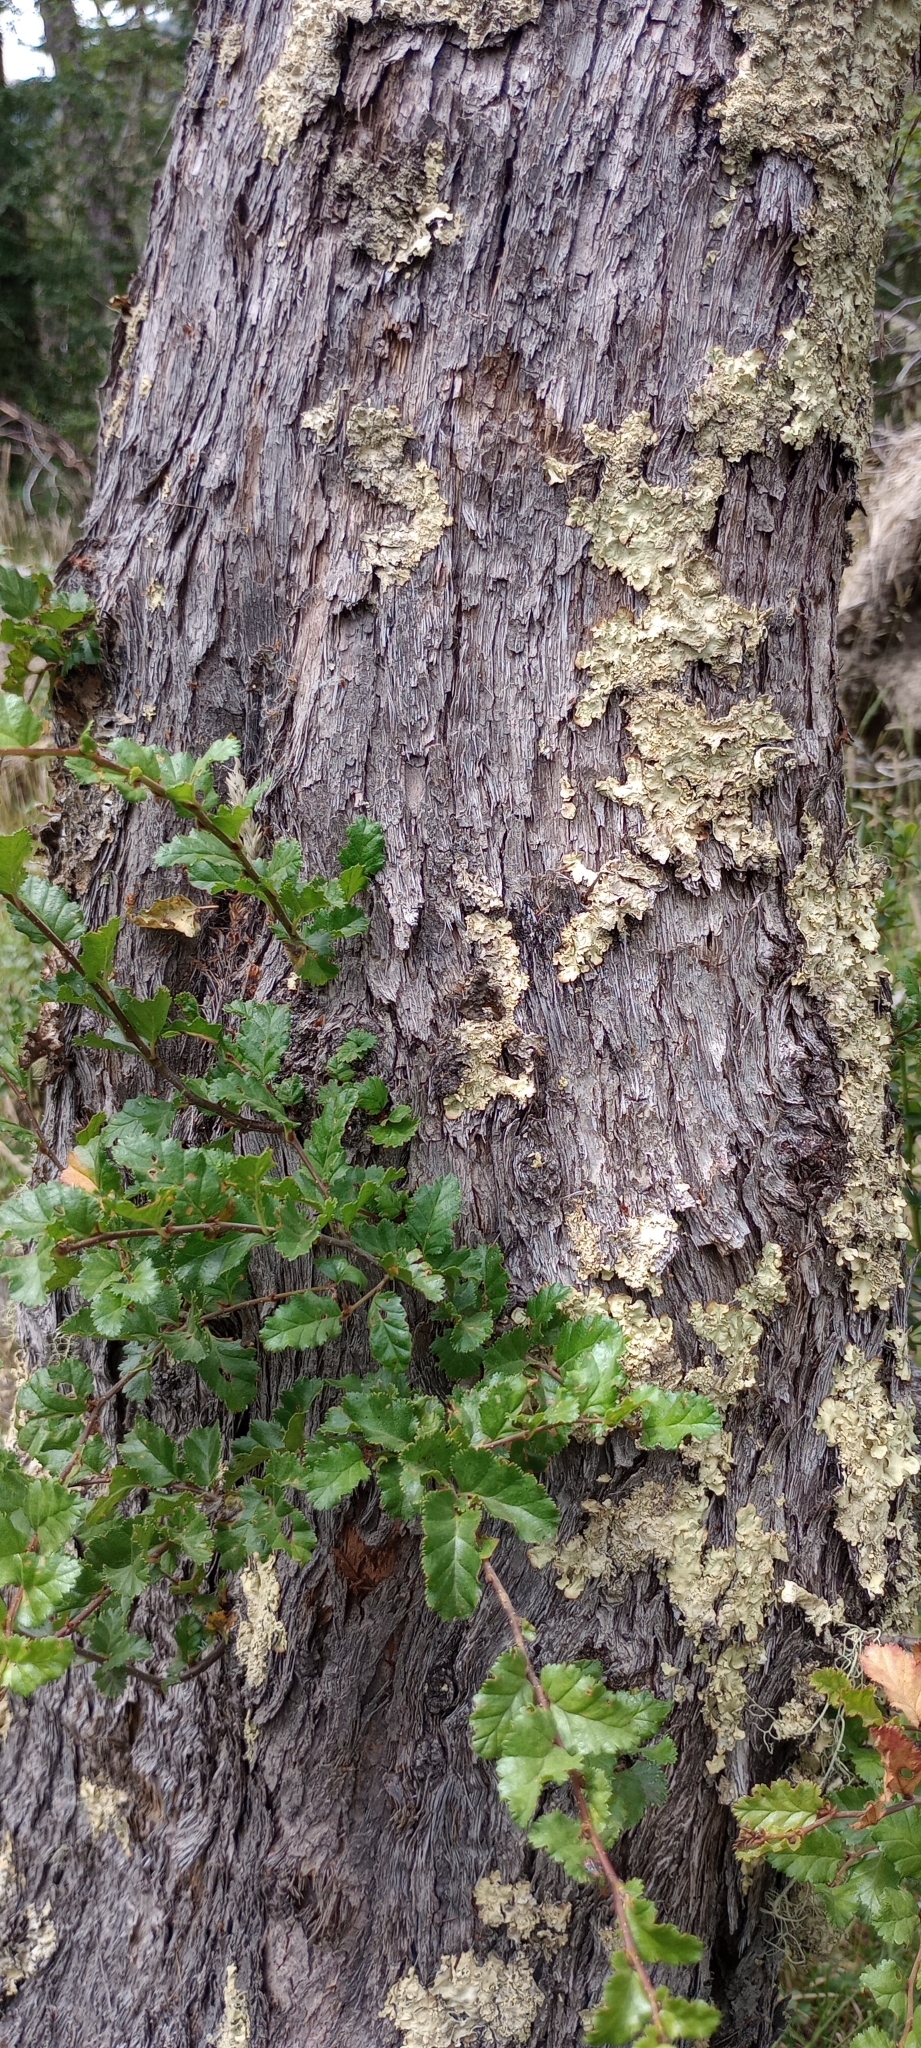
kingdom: Plantae
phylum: Tracheophyta
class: Magnoliopsida
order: Fagales
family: Nothofagaceae
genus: Nothofagus
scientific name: Nothofagus antarctica
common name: Antarctic beech
